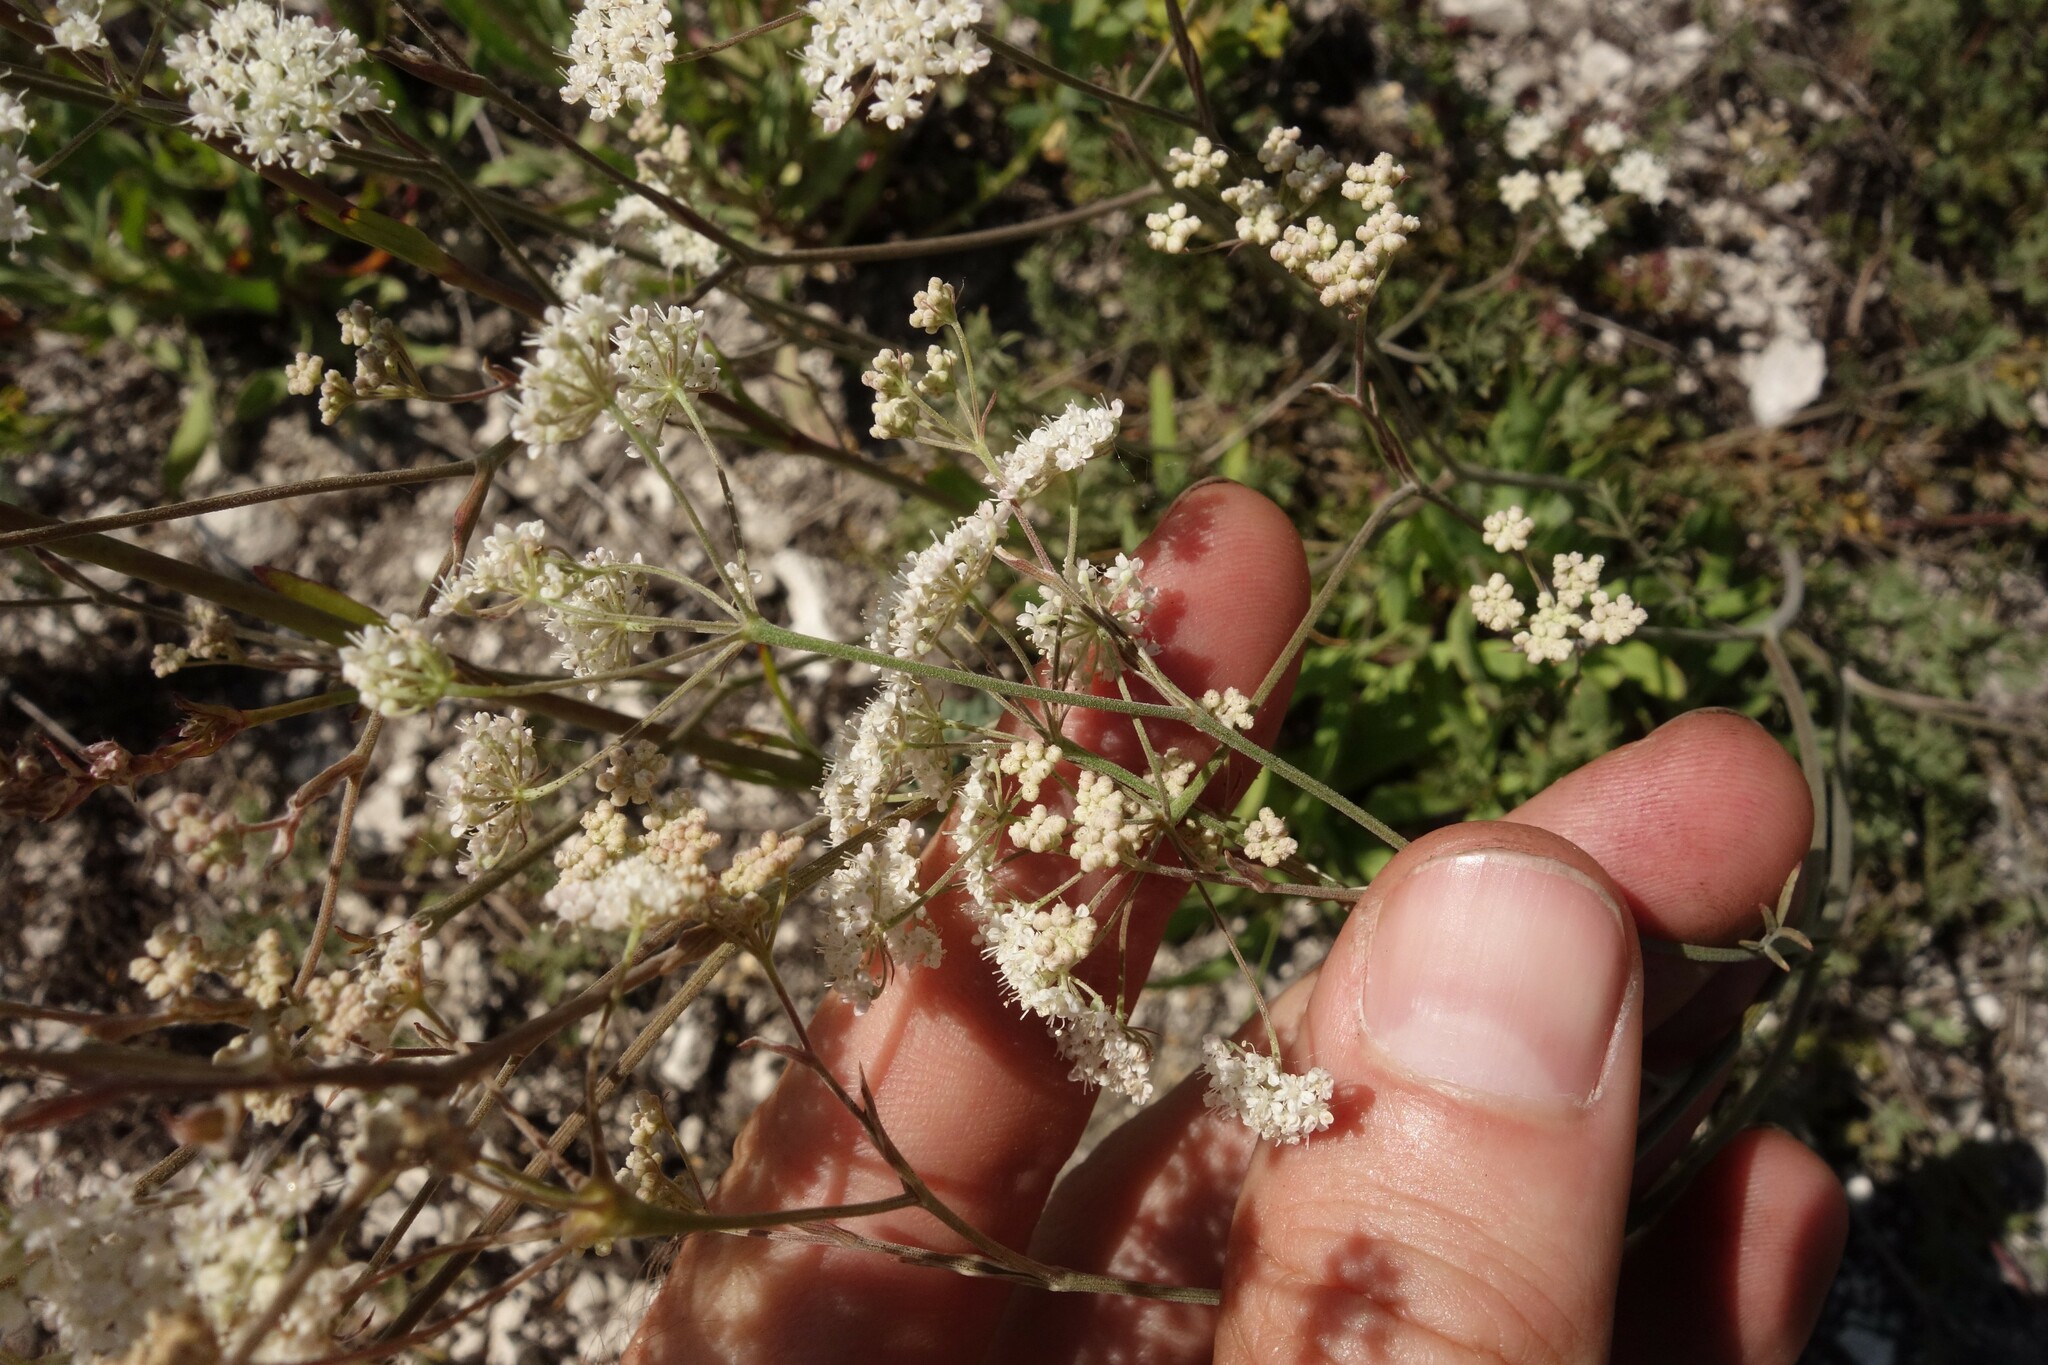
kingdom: Plantae
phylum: Tracheophyta
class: Magnoliopsida
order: Apiales
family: Apiaceae
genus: Pimpinella
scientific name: Pimpinella tragium
